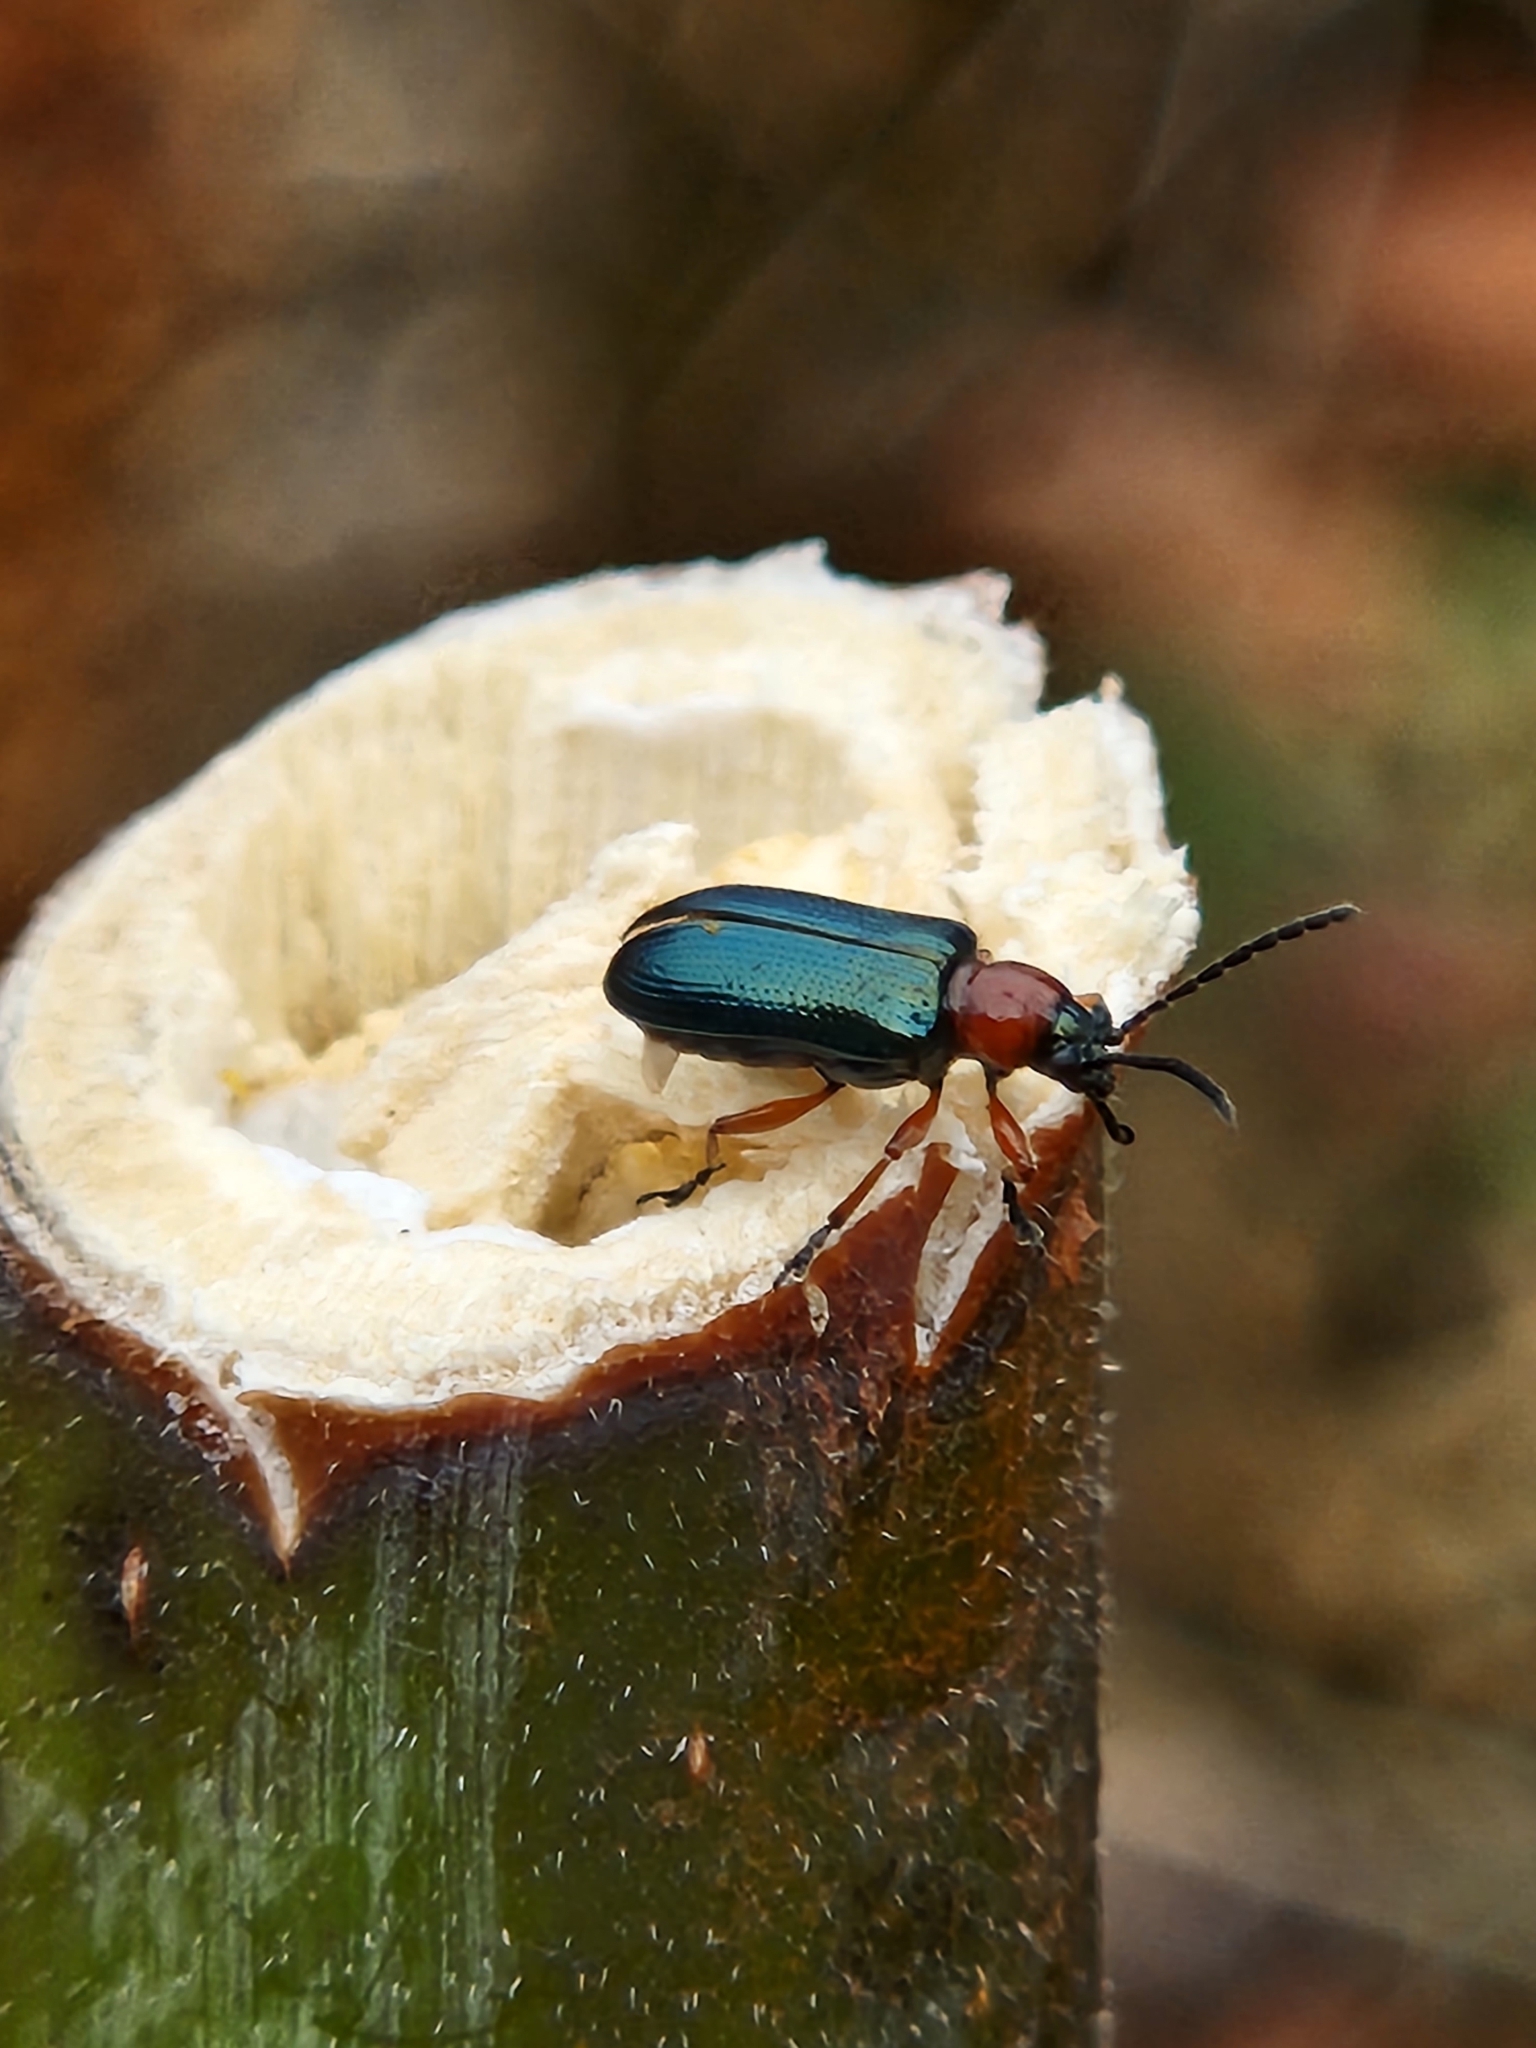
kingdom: Animalia
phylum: Arthropoda
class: Insecta
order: Coleoptera
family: Chrysomelidae
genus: Oulema
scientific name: Oulema melanopus
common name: Cereal leaf beetle
